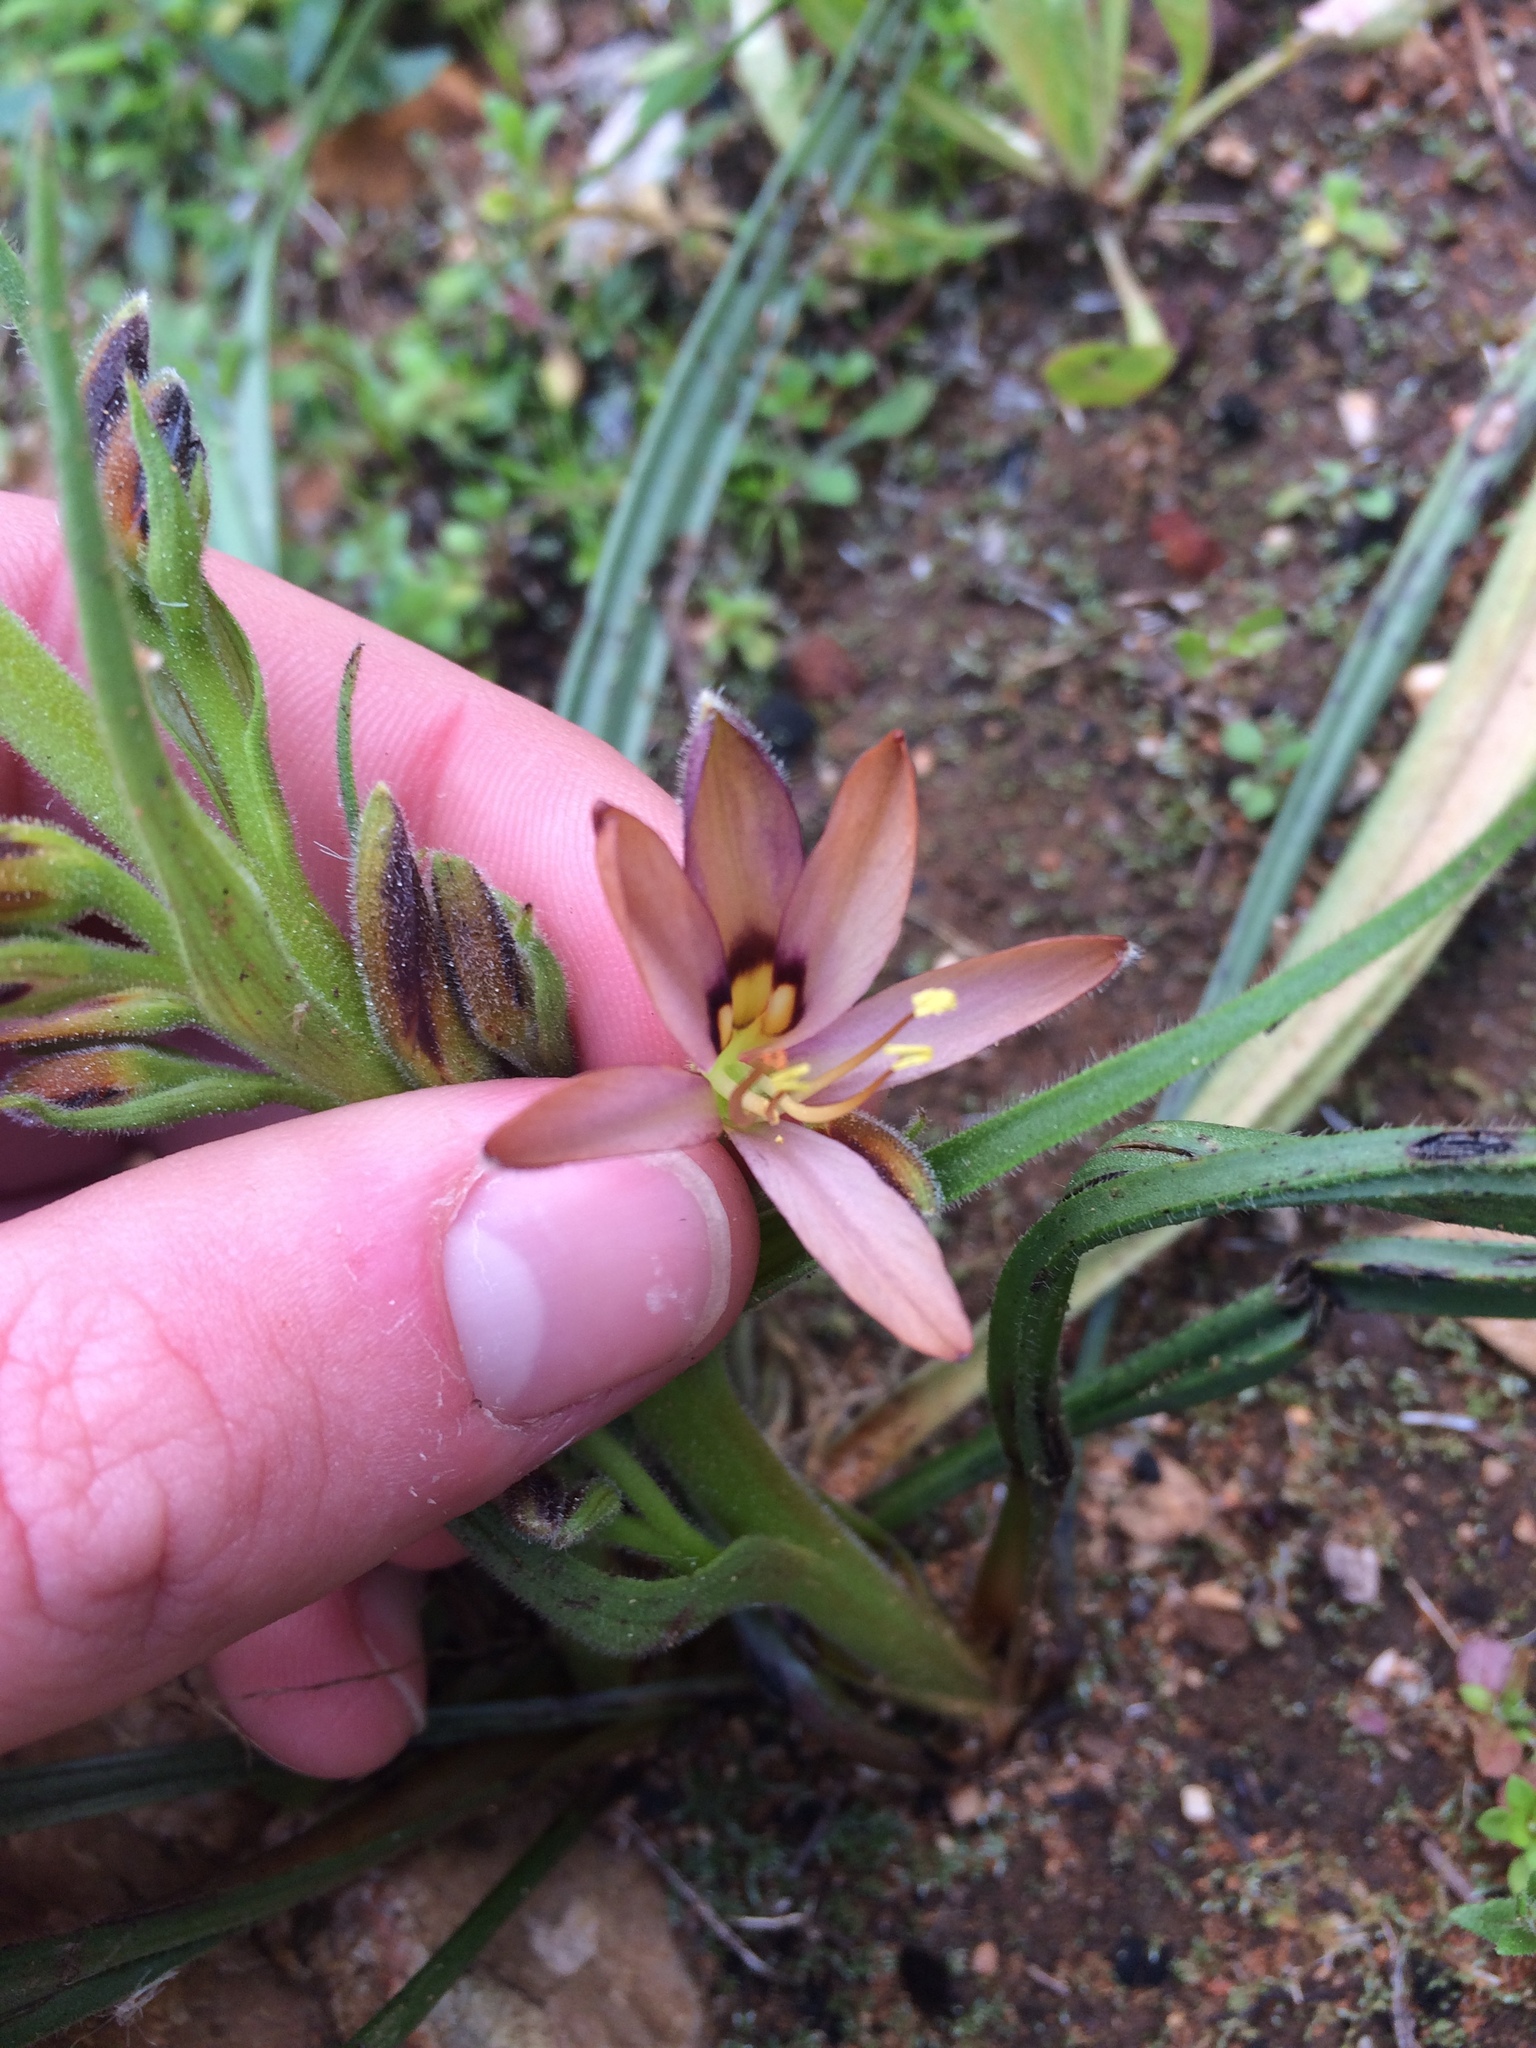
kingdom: Plantae
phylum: Tracheophyta
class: Liliopsida
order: Commelinales
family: Haemodoraceae
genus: Wachendorfia
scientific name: Wachendorfia multiflora
